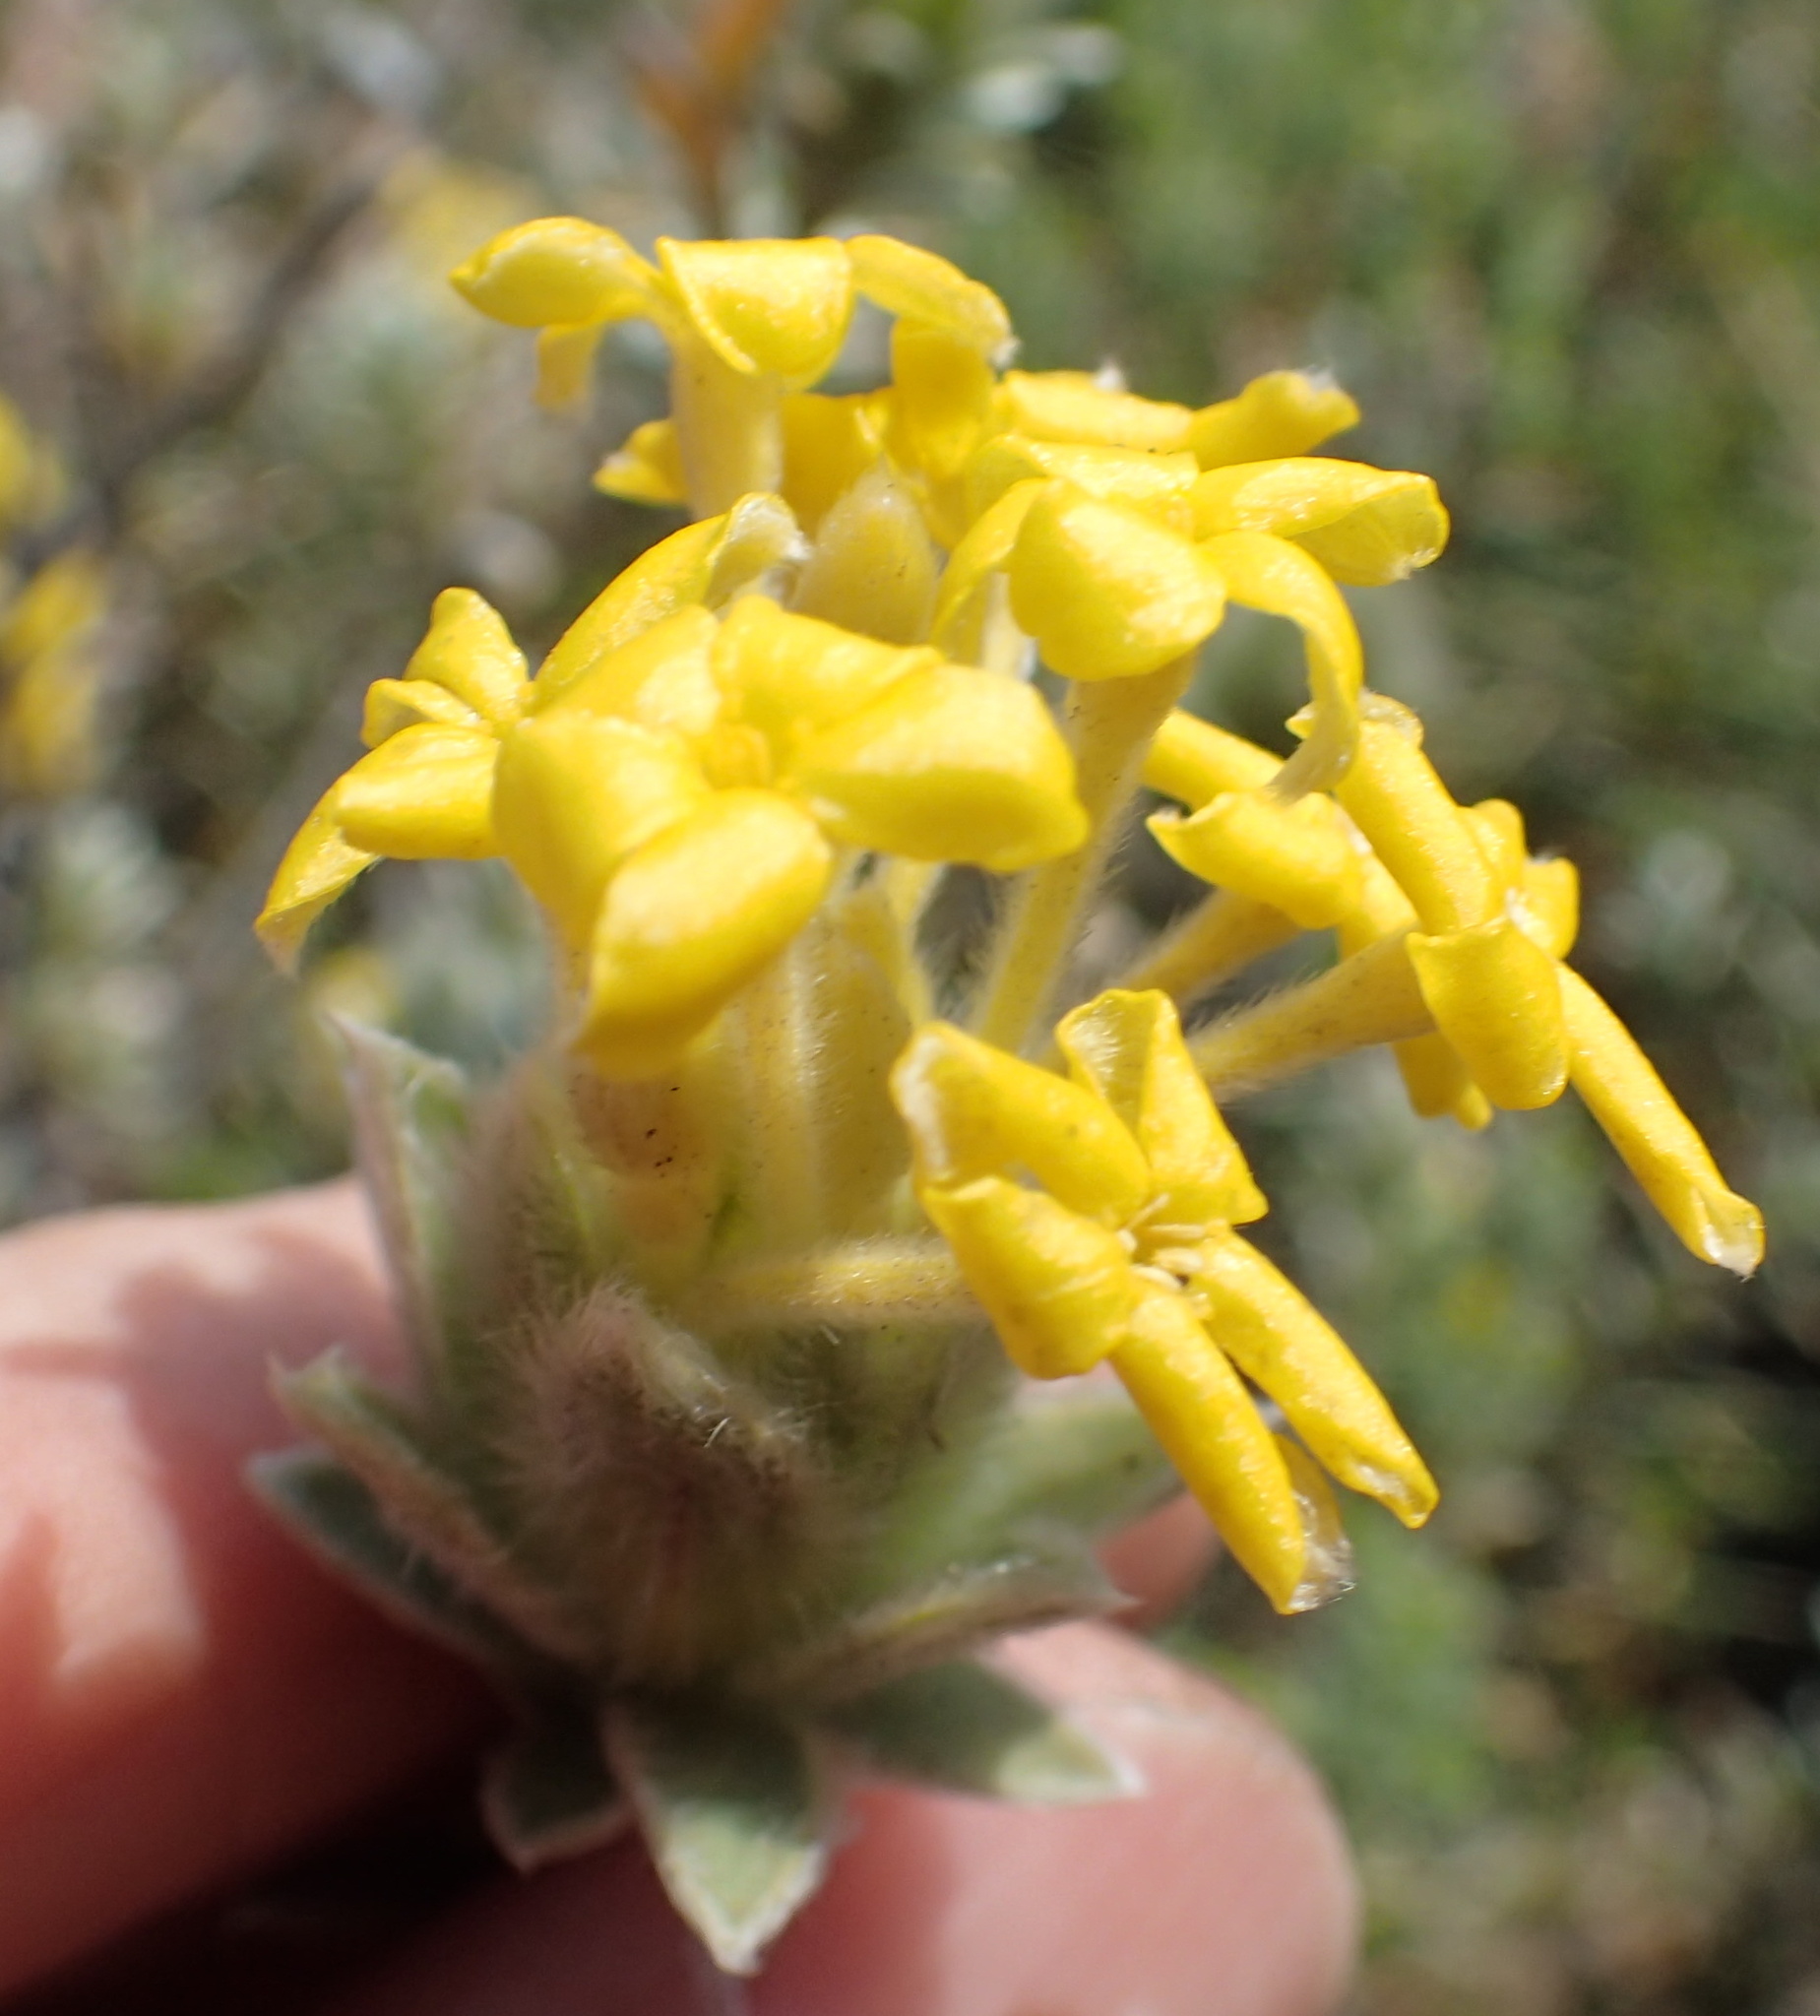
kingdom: Plantae
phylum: Tracheophyta
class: Magnoliopsida
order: Malvales
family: Thymelaeaceae
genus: Gnidia
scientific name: Gnidia burchellii
